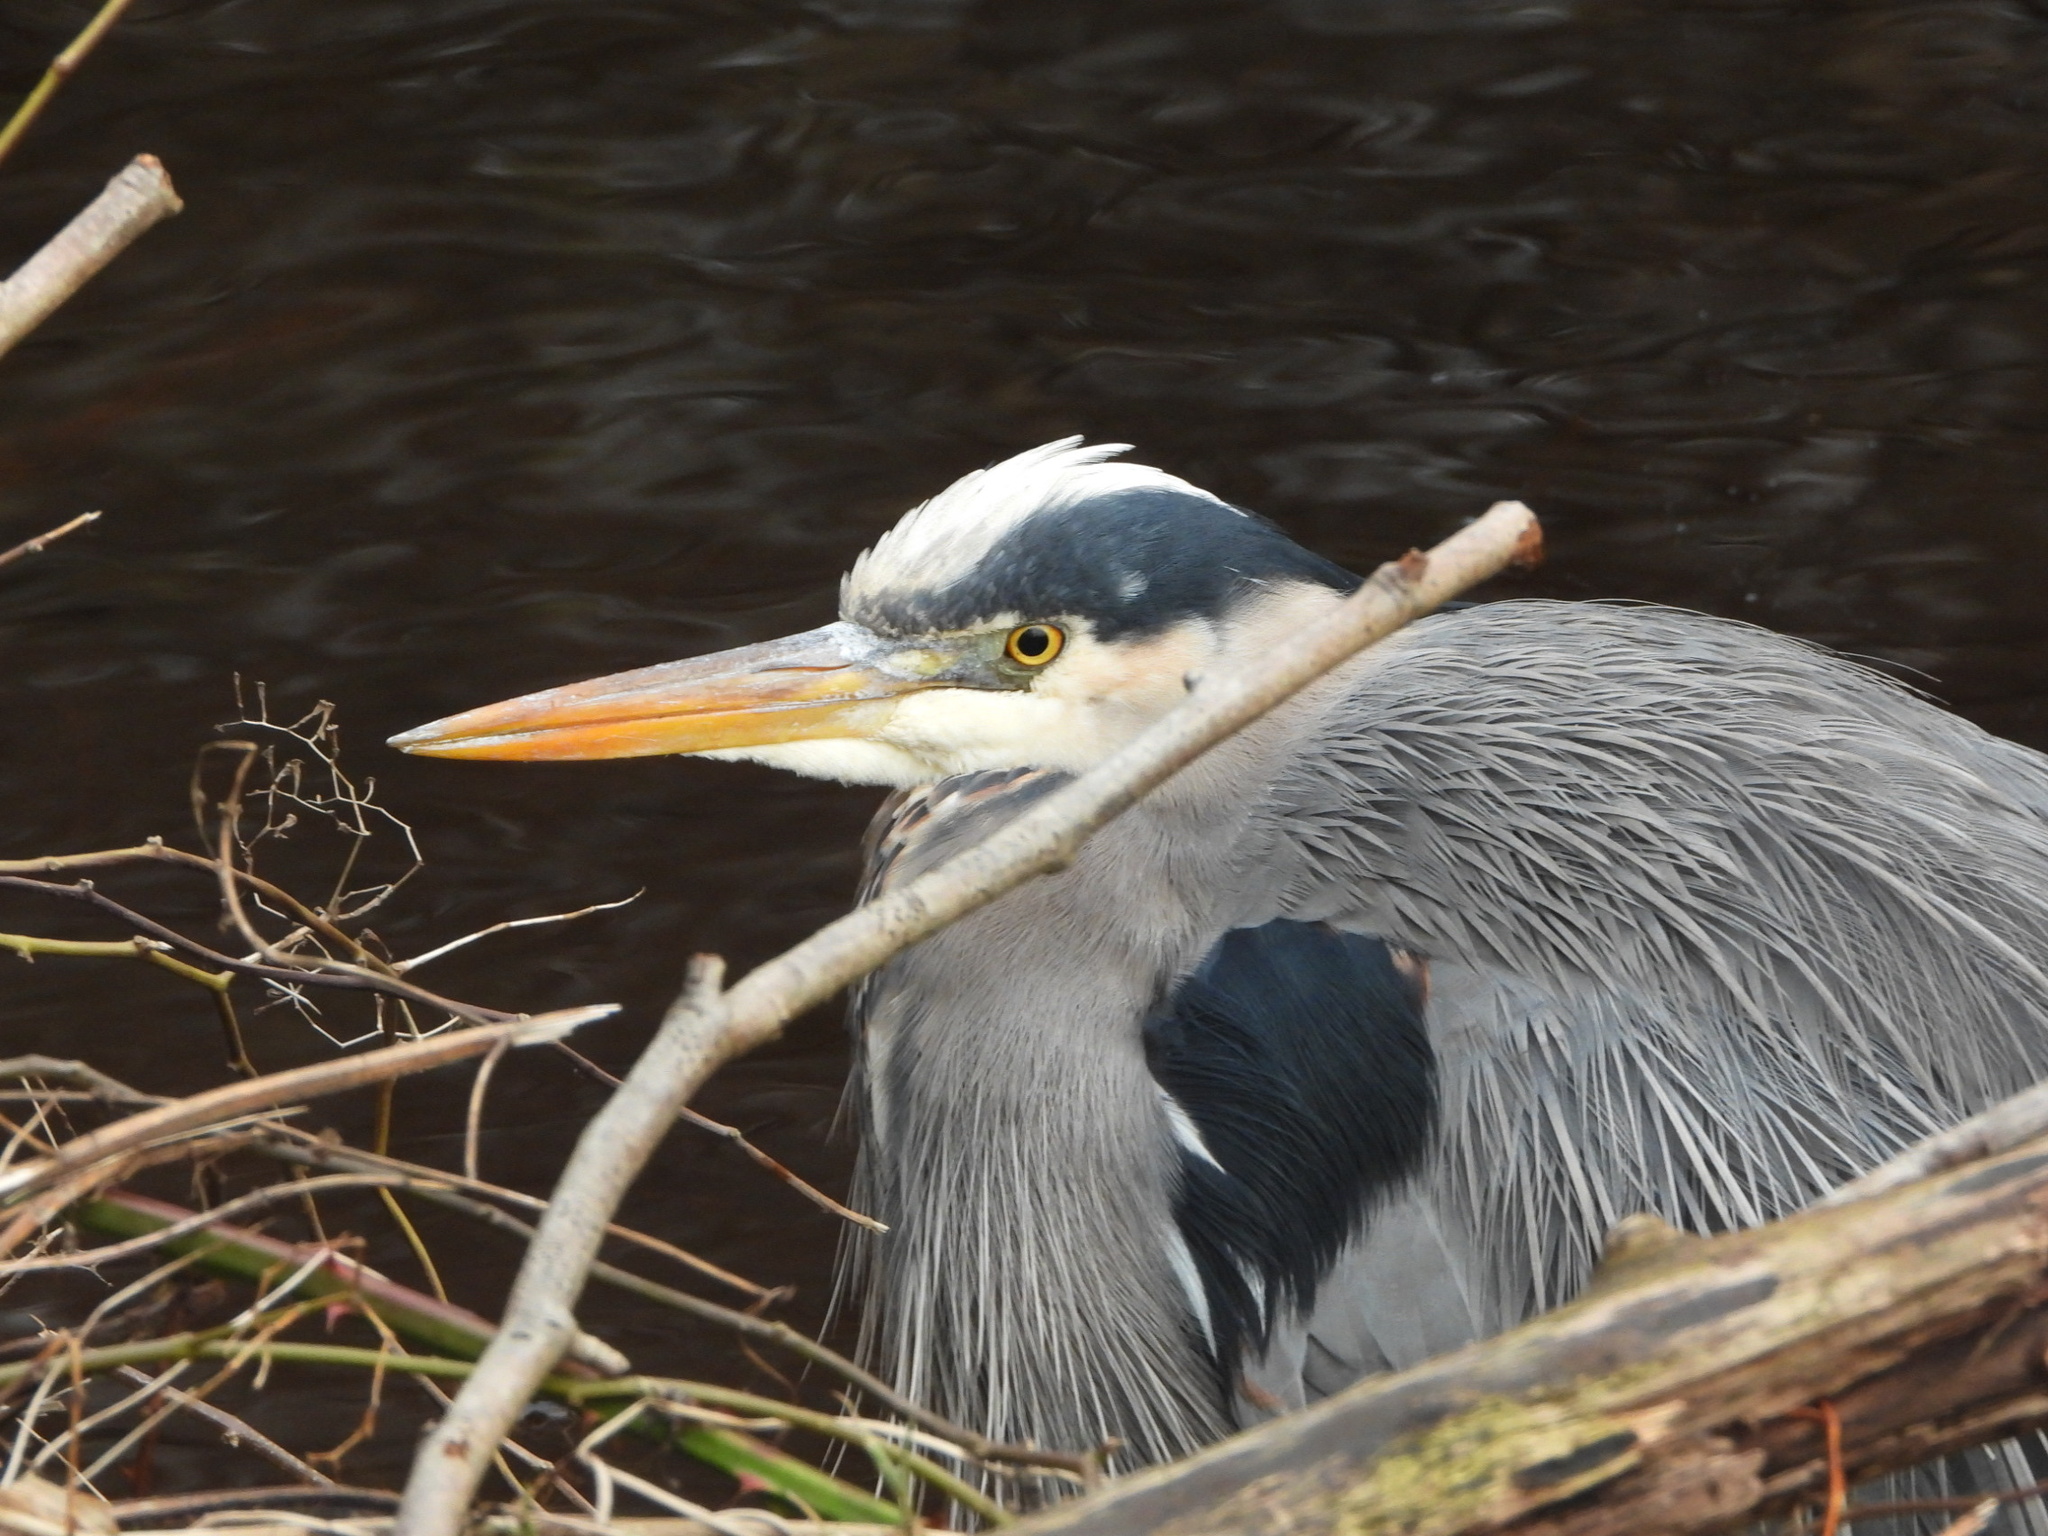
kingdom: Animalia
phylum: Chordata
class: Aves
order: Pelecaniformes
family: Ardeidae
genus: Ardea
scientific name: Ardea herodias
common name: Great blue heron
